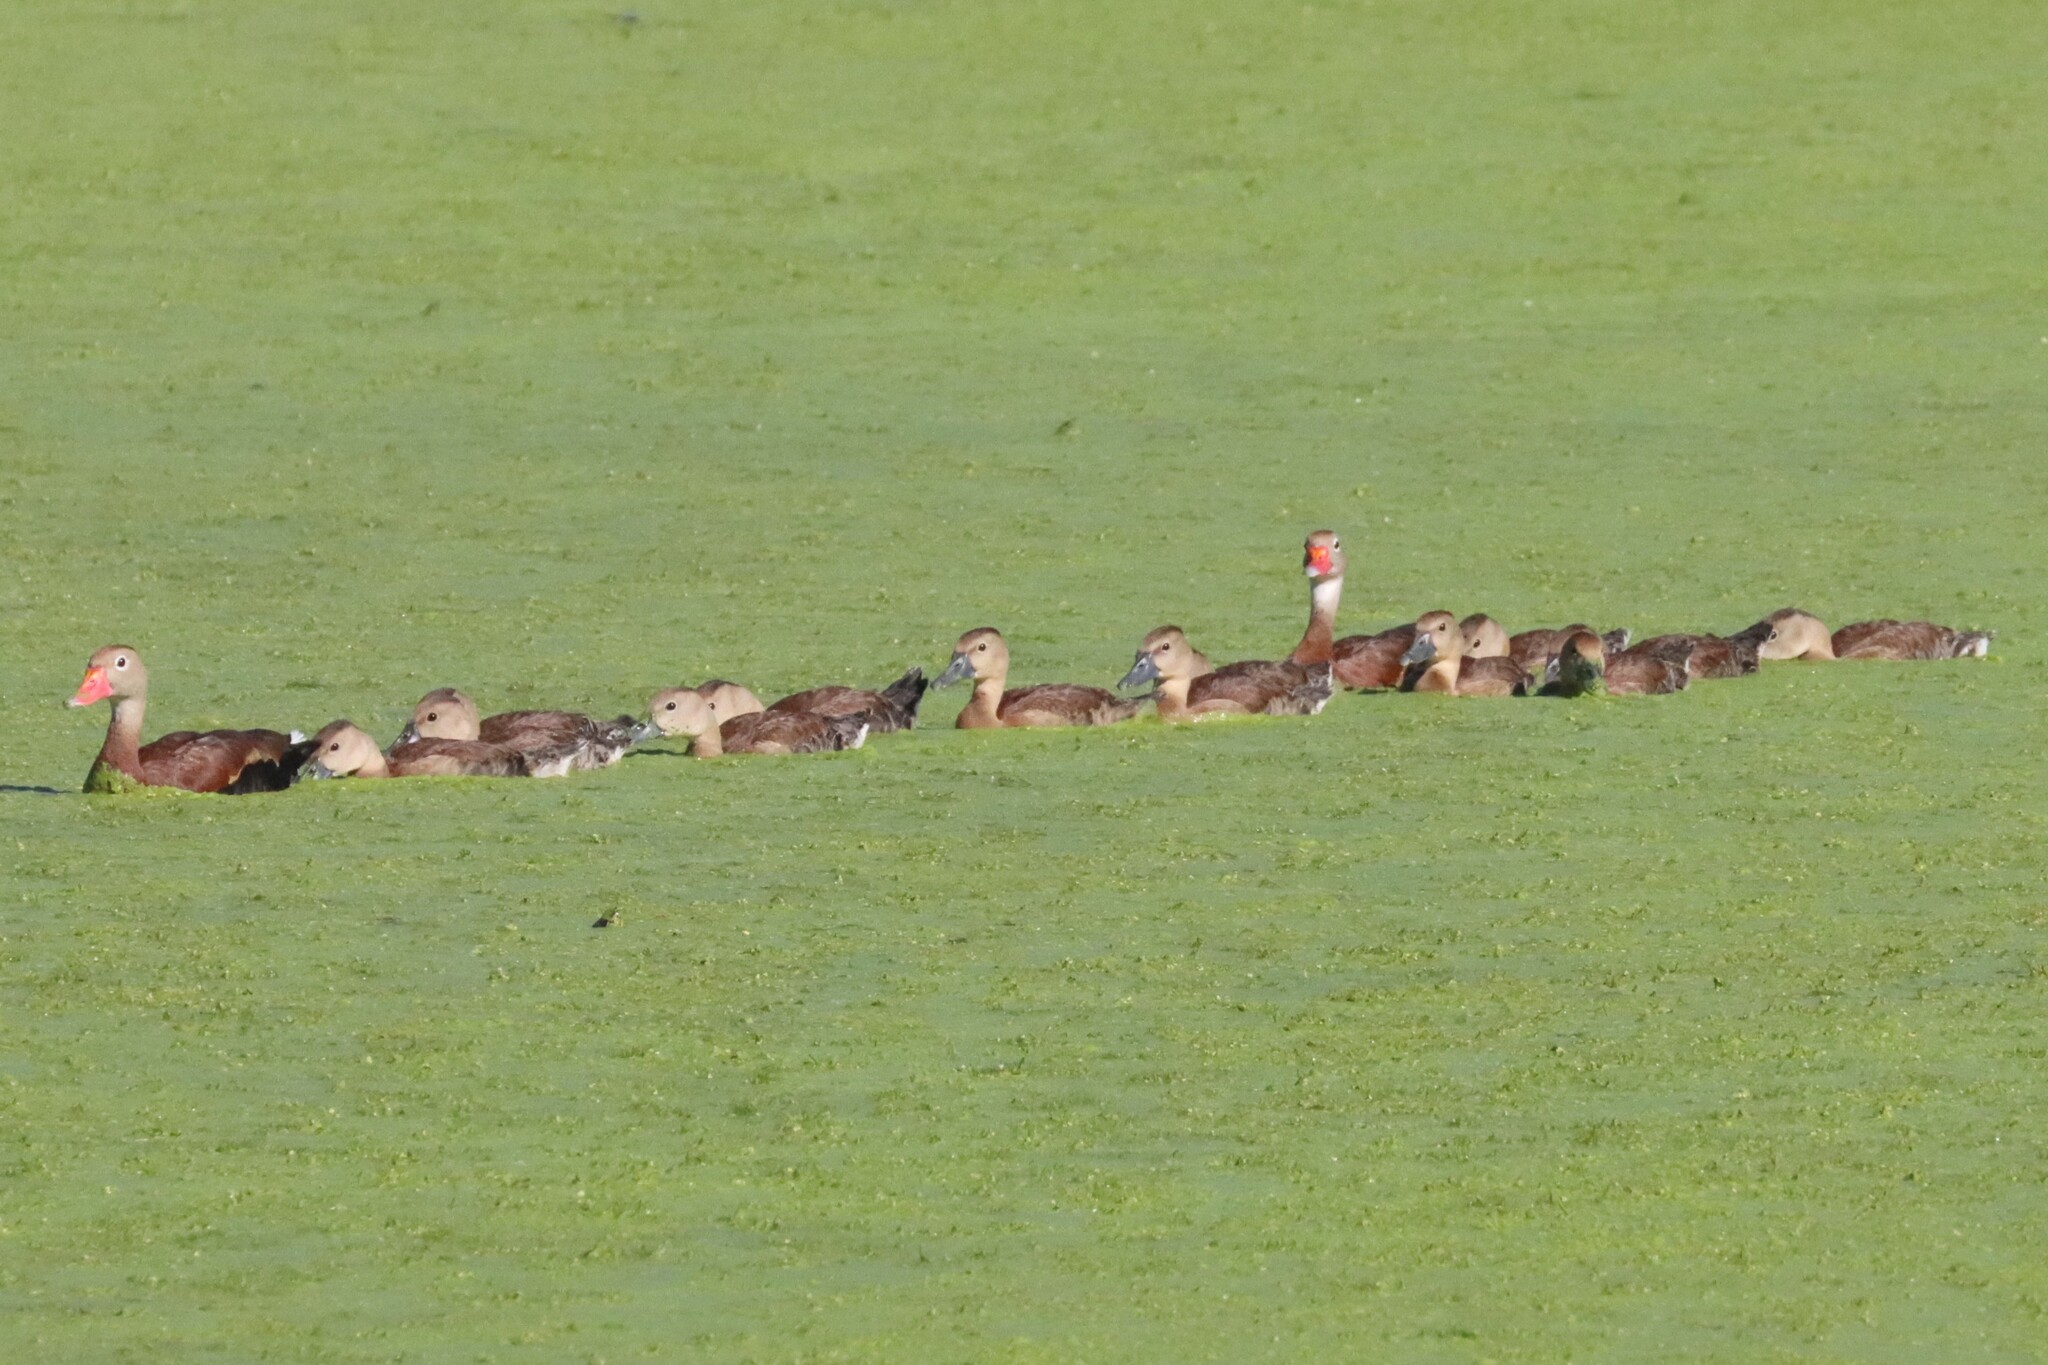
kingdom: Animalia
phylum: Chordata
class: Aves
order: Anseriformes
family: Anatidae
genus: Dendrocygna
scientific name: Dendrocygna autumnalis
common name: Black-bellied whistling duck
